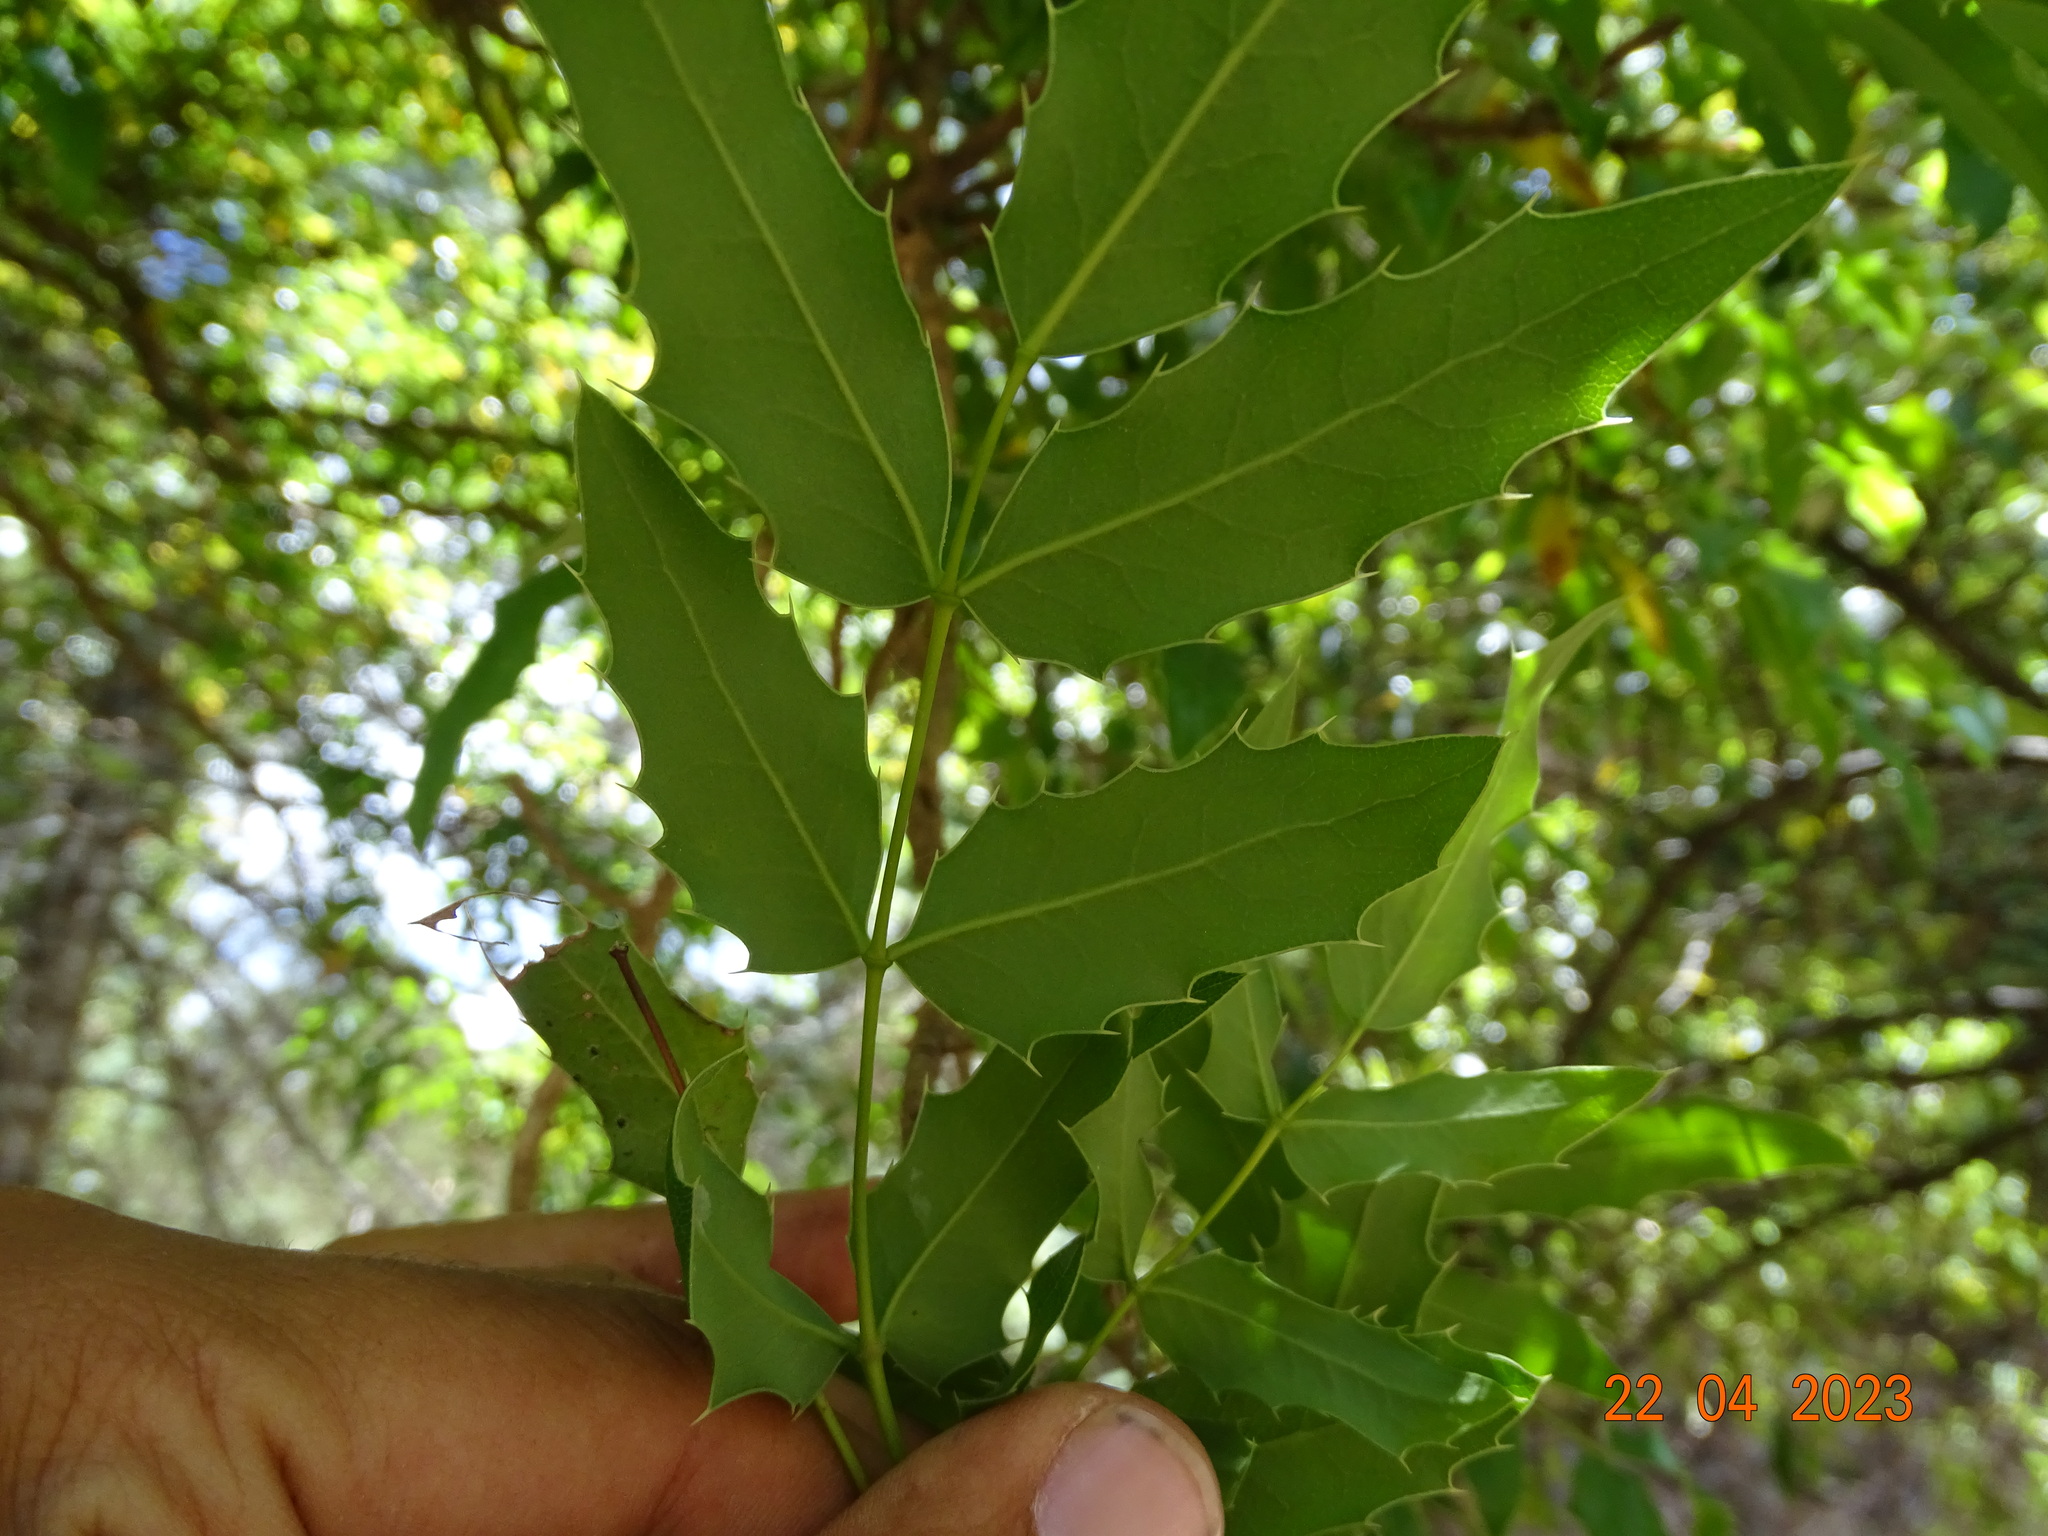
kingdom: Plantae
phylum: Tracheophyta
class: Magnoliopsida
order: Ranunculales
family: Berberidaceae
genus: Mahonia
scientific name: Mahonia moranensis
